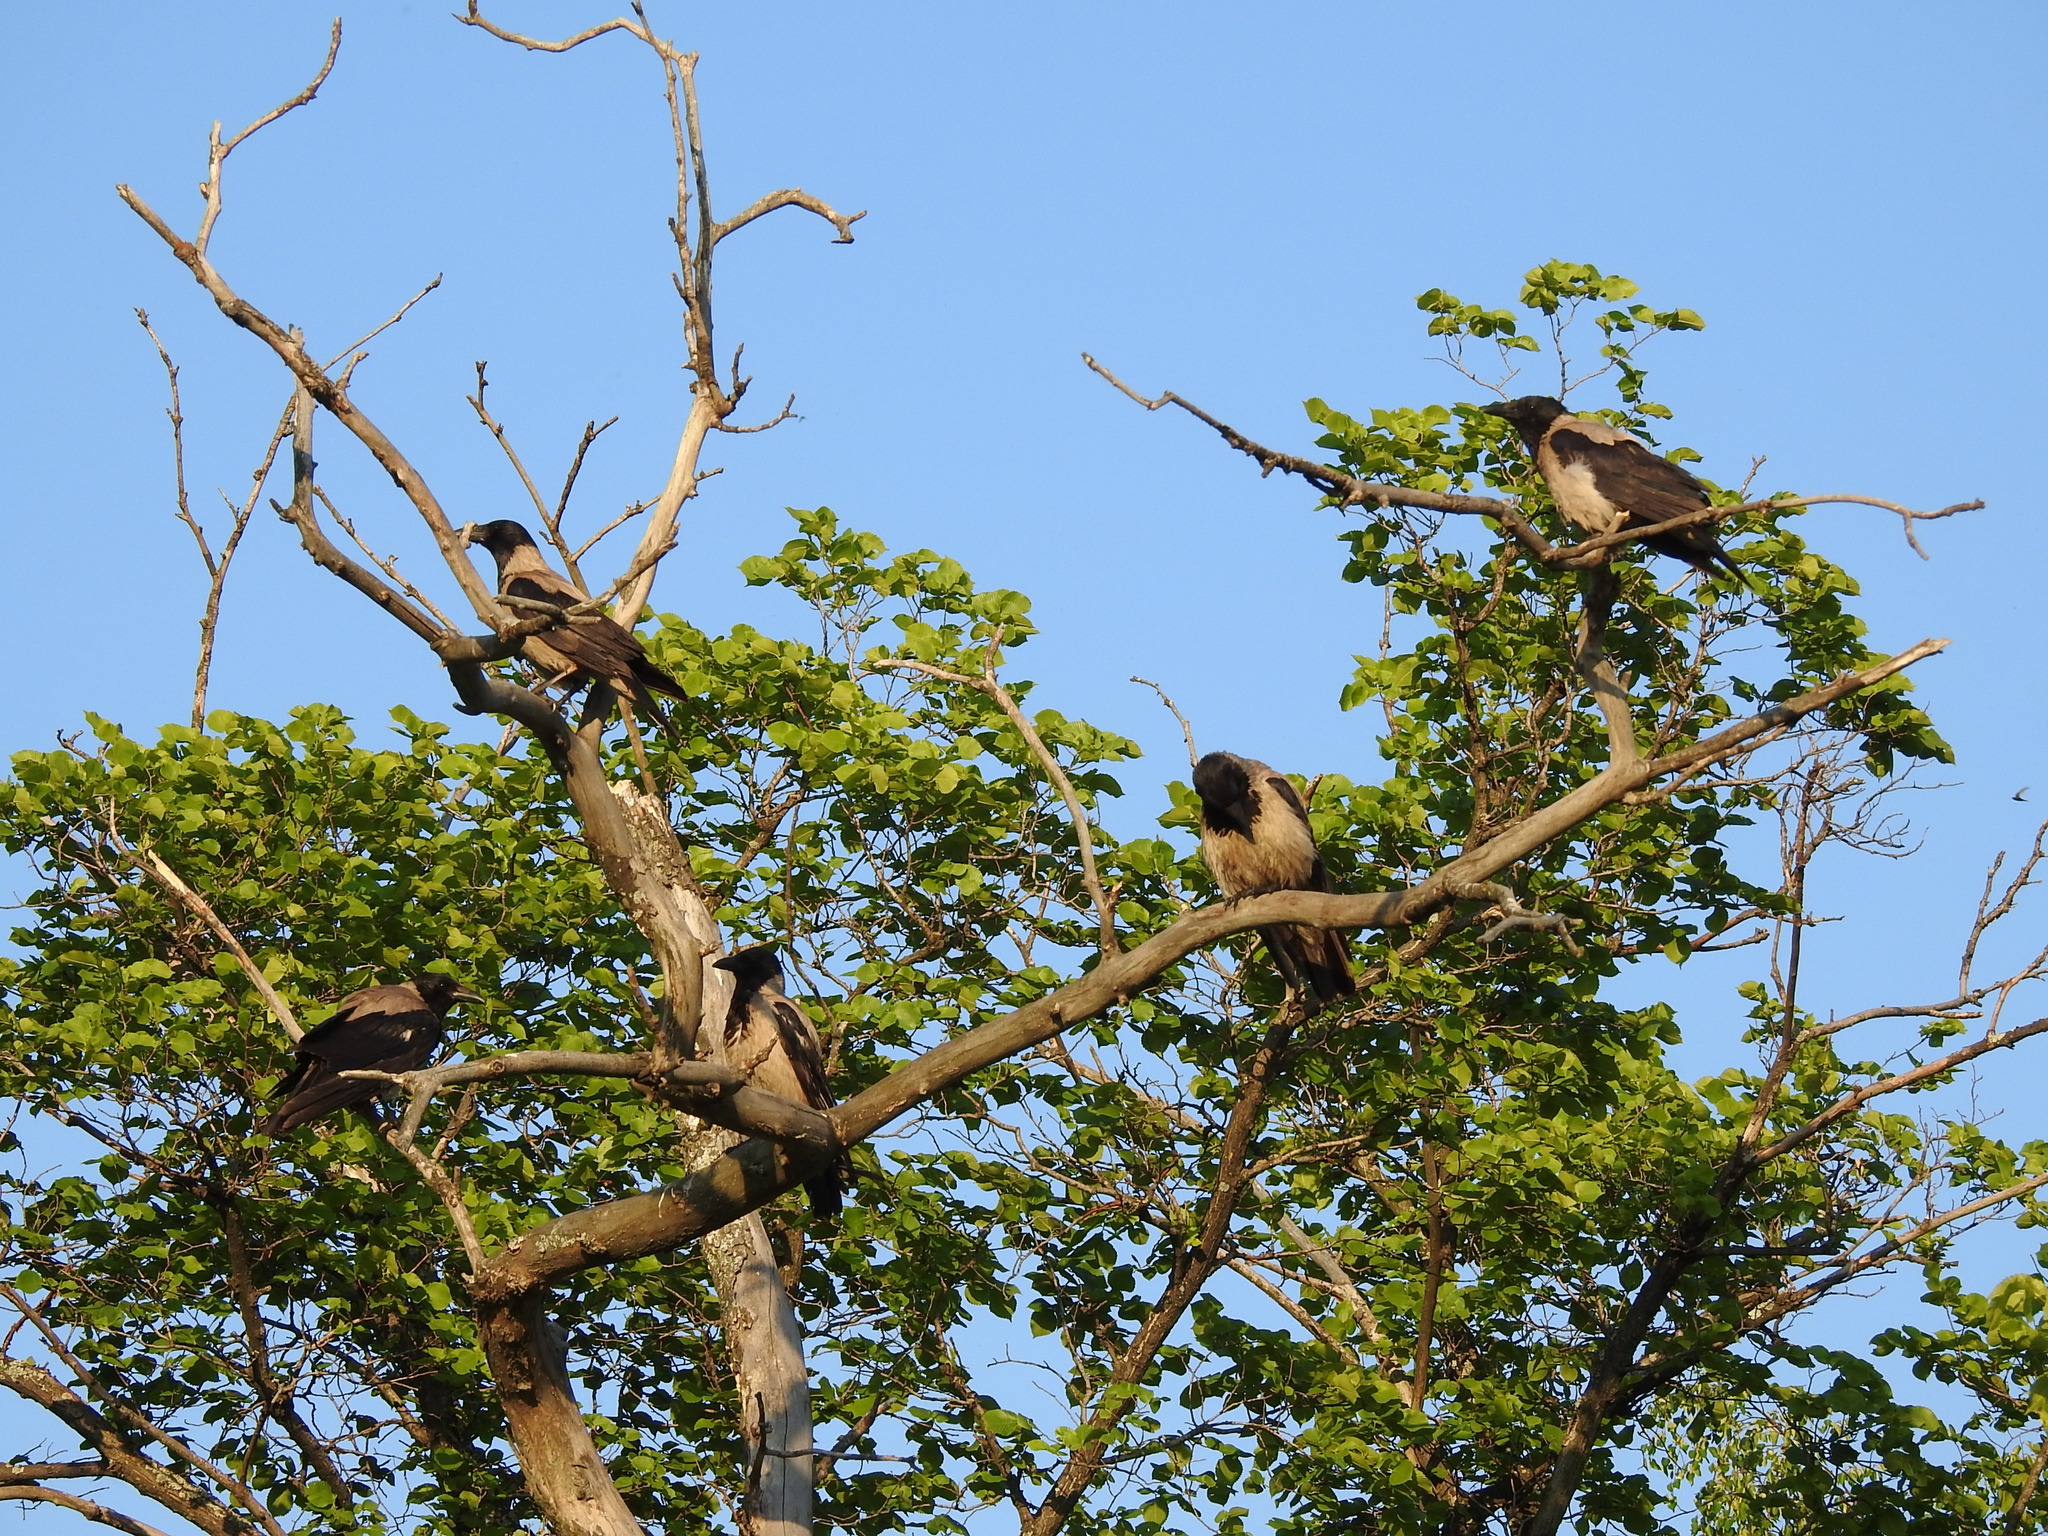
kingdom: Animalia
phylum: Chordata
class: Aves
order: Passeriformes
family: Corvidae
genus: Corvus
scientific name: Corvus cornix
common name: Hooded crow
